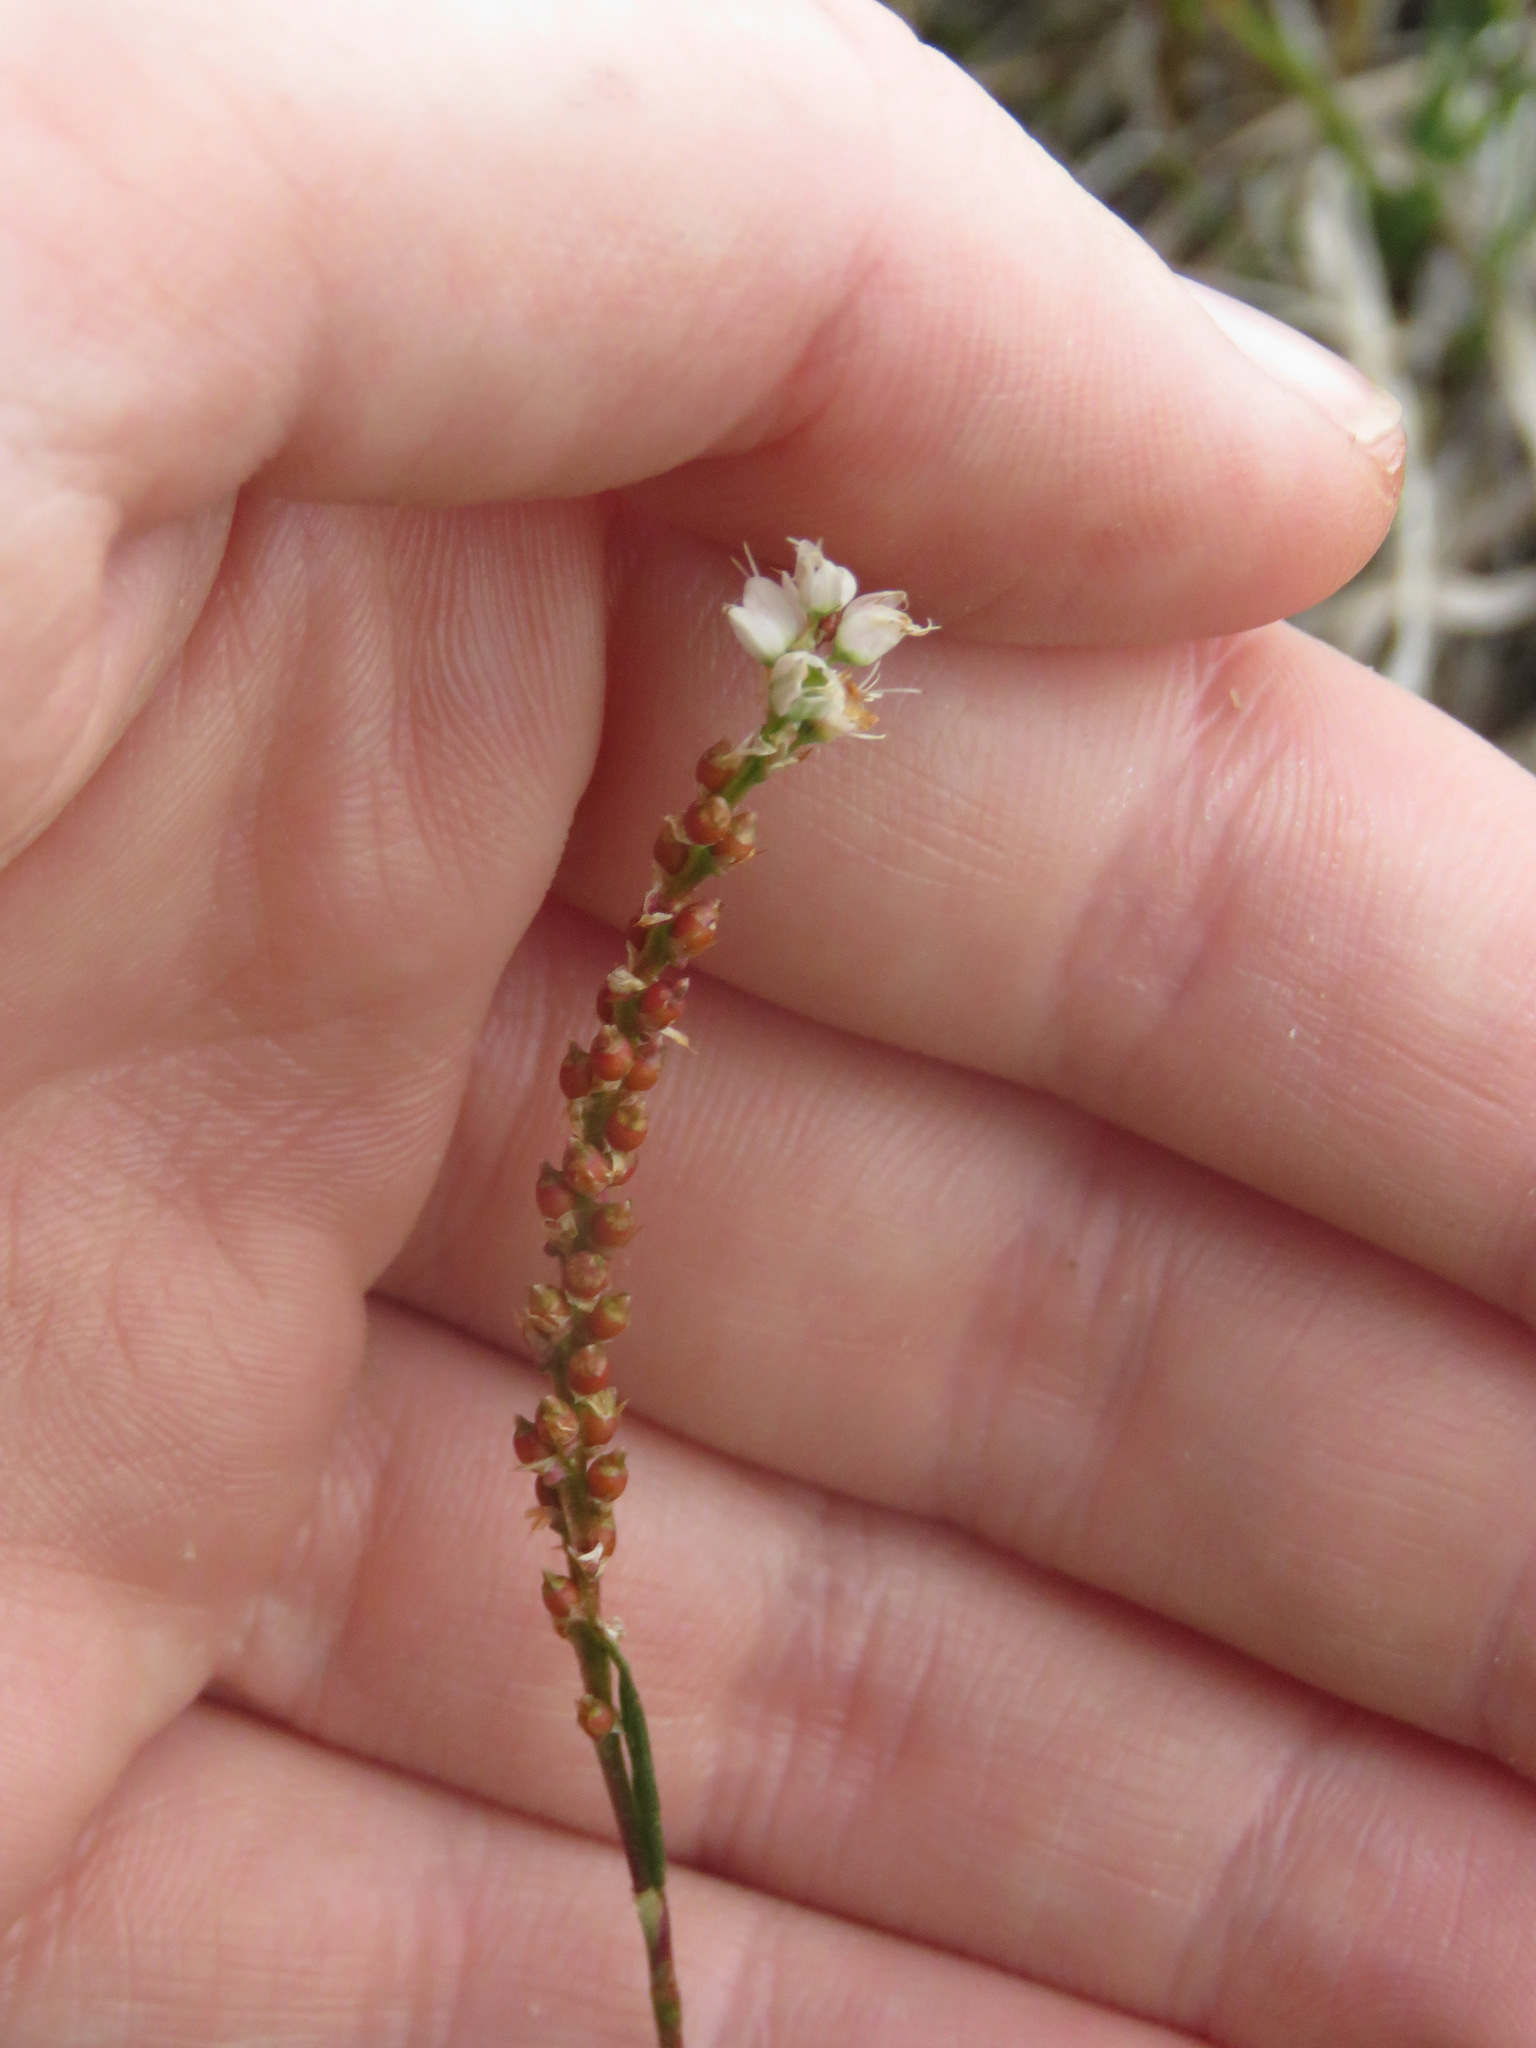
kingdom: Plantae
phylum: Tracheophyta
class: Magnoliopsida
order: Caryophyllales
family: Polygonaceae
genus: Bistorta
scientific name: Bistorta vivipara
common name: Alpine bistort
